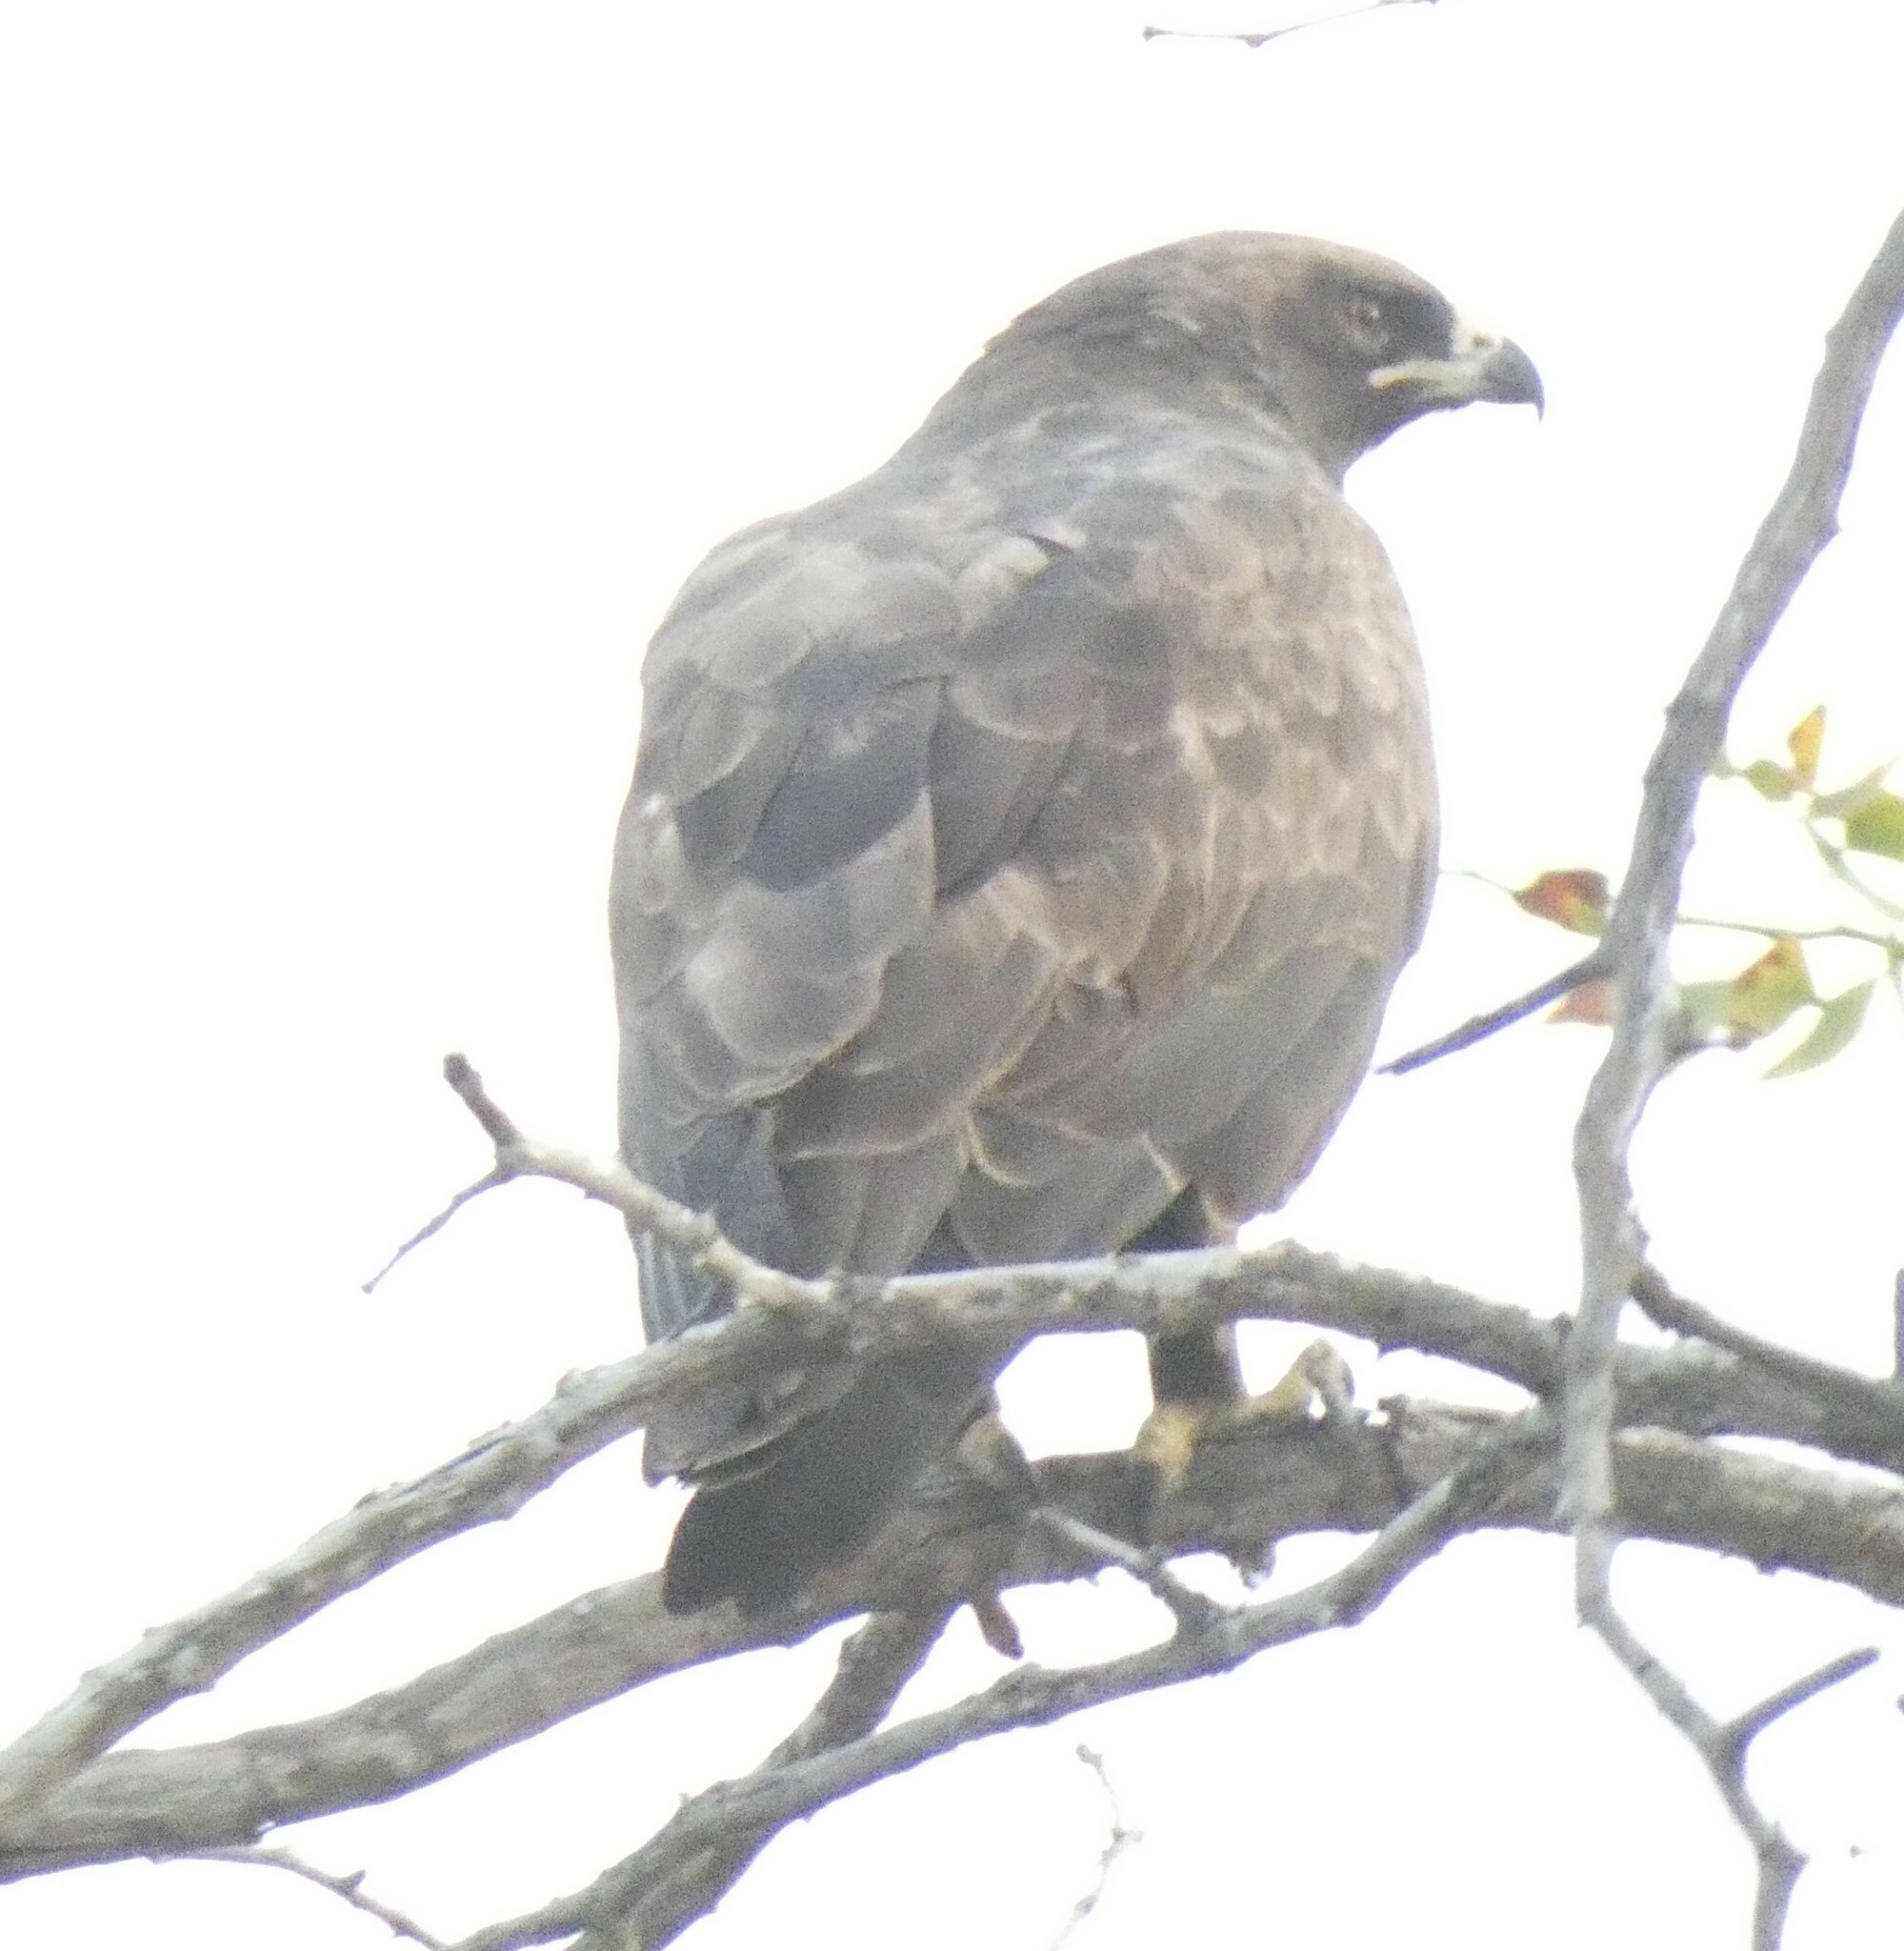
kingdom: Animalia
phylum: Chordata
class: Aves
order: Accipitriformes
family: Accipitridae
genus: Hieraaetus
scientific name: Hieraaetus wahlbergi
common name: Wahlberg's eagle
